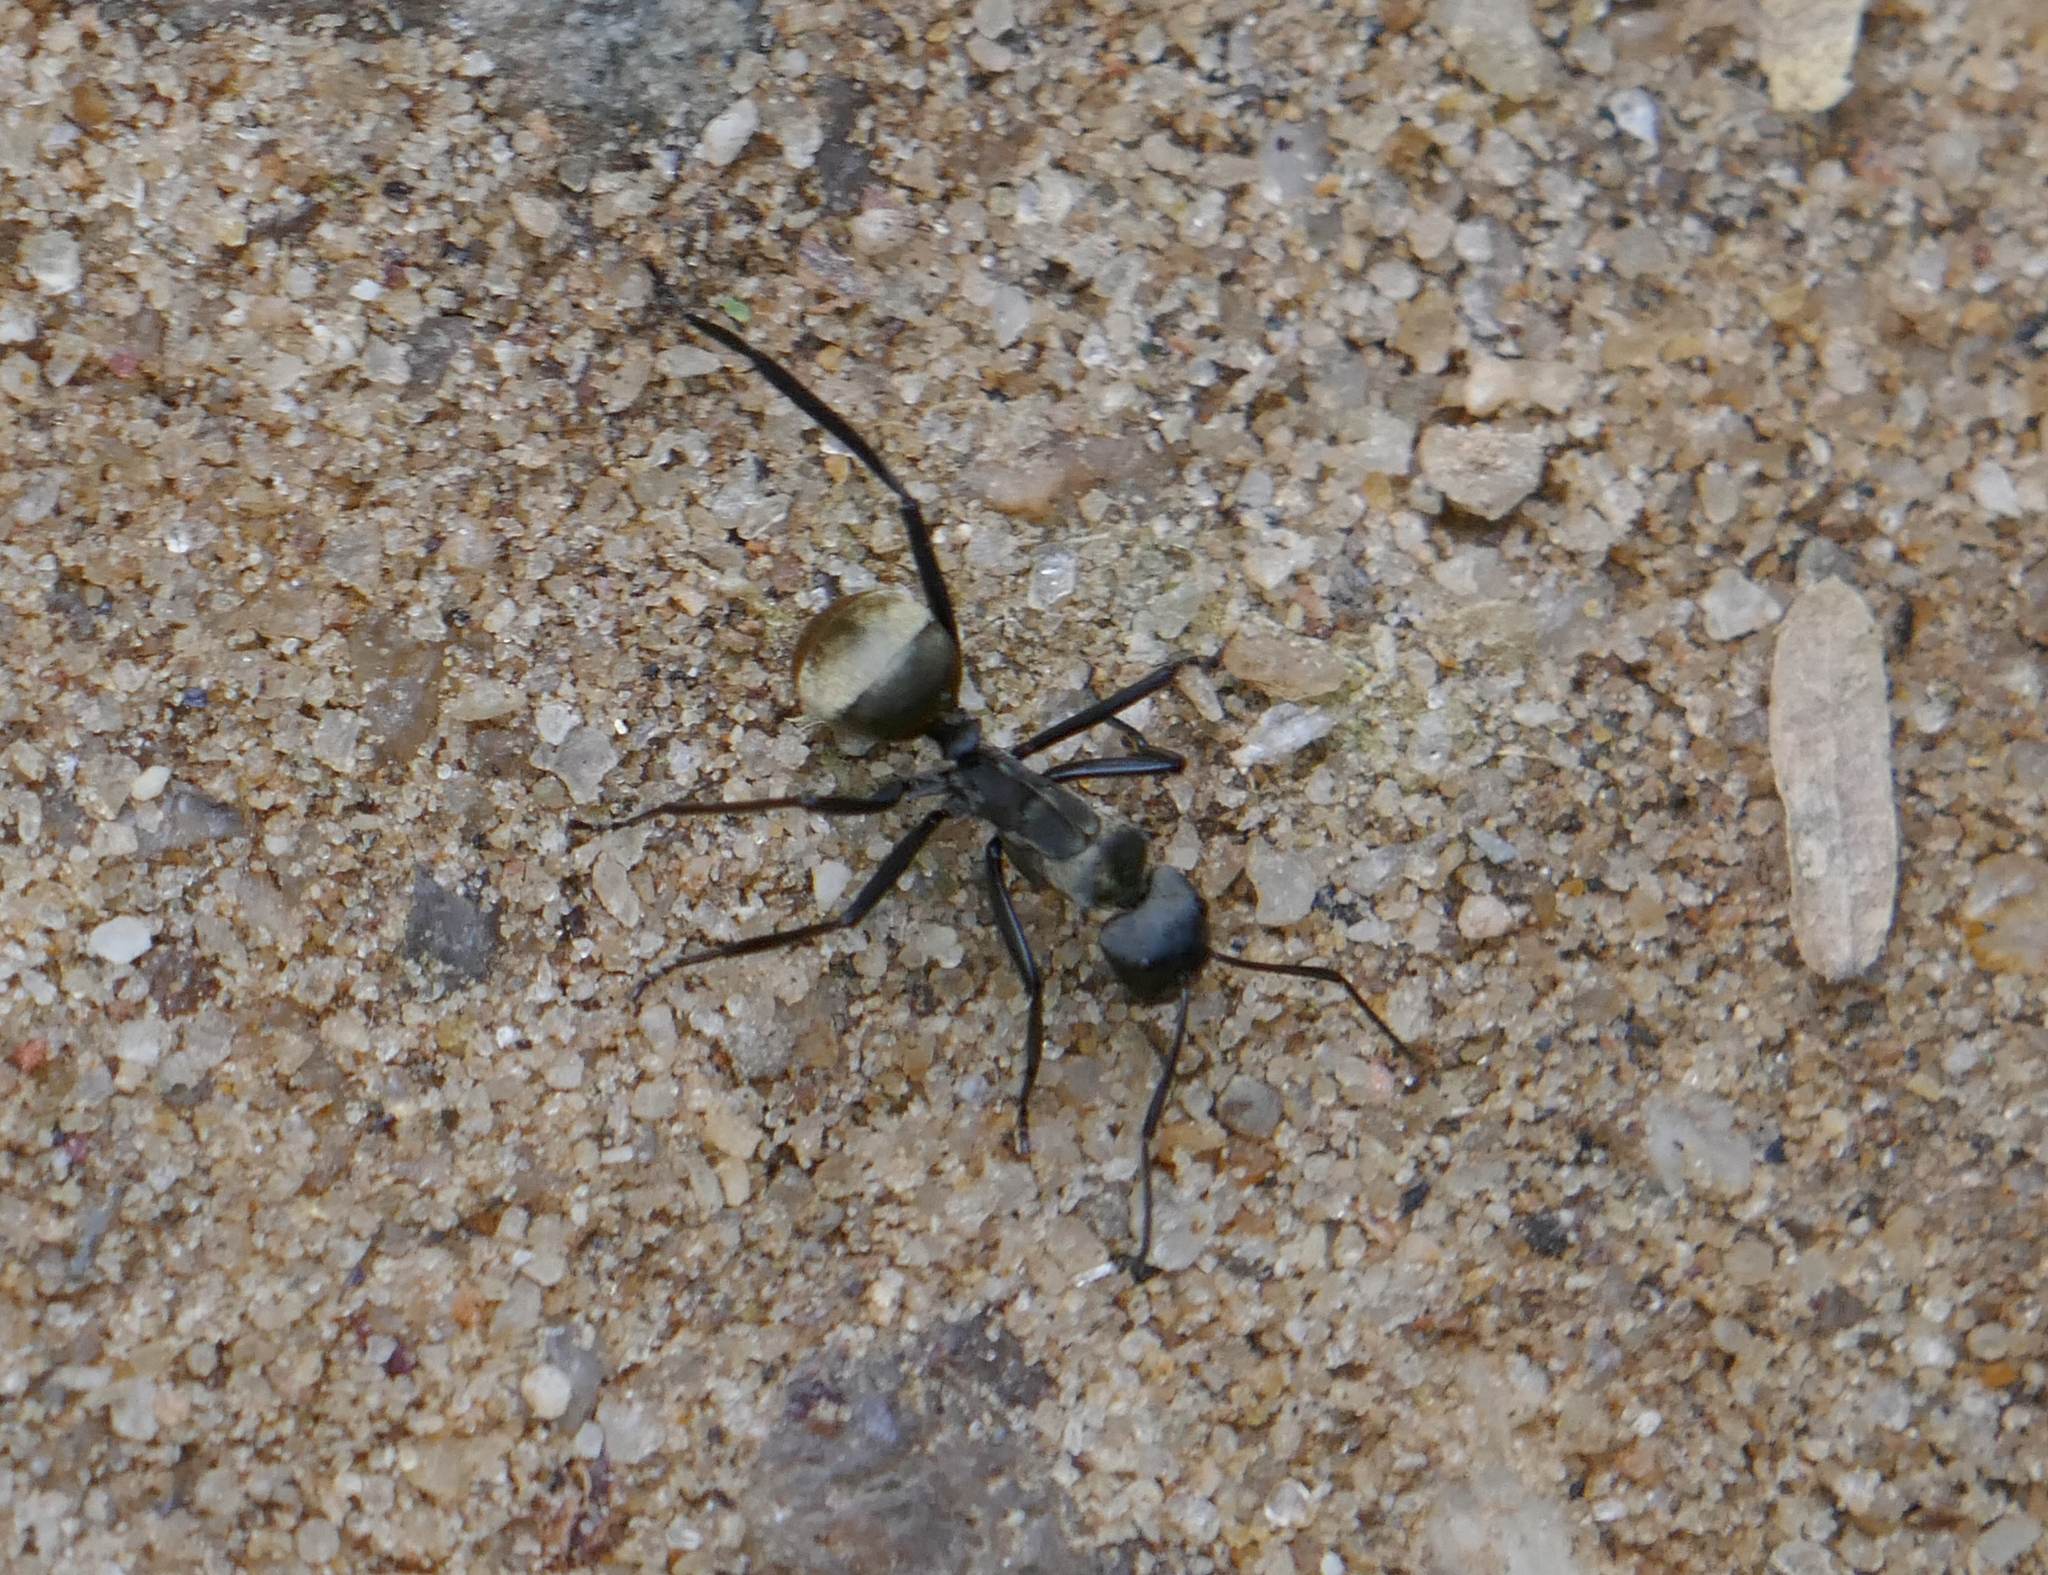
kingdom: Animalia
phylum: Arthropoda
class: Insecta
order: Hymenoptera
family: Formicidae
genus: Camponotus
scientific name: Camponotus sericeiventris
